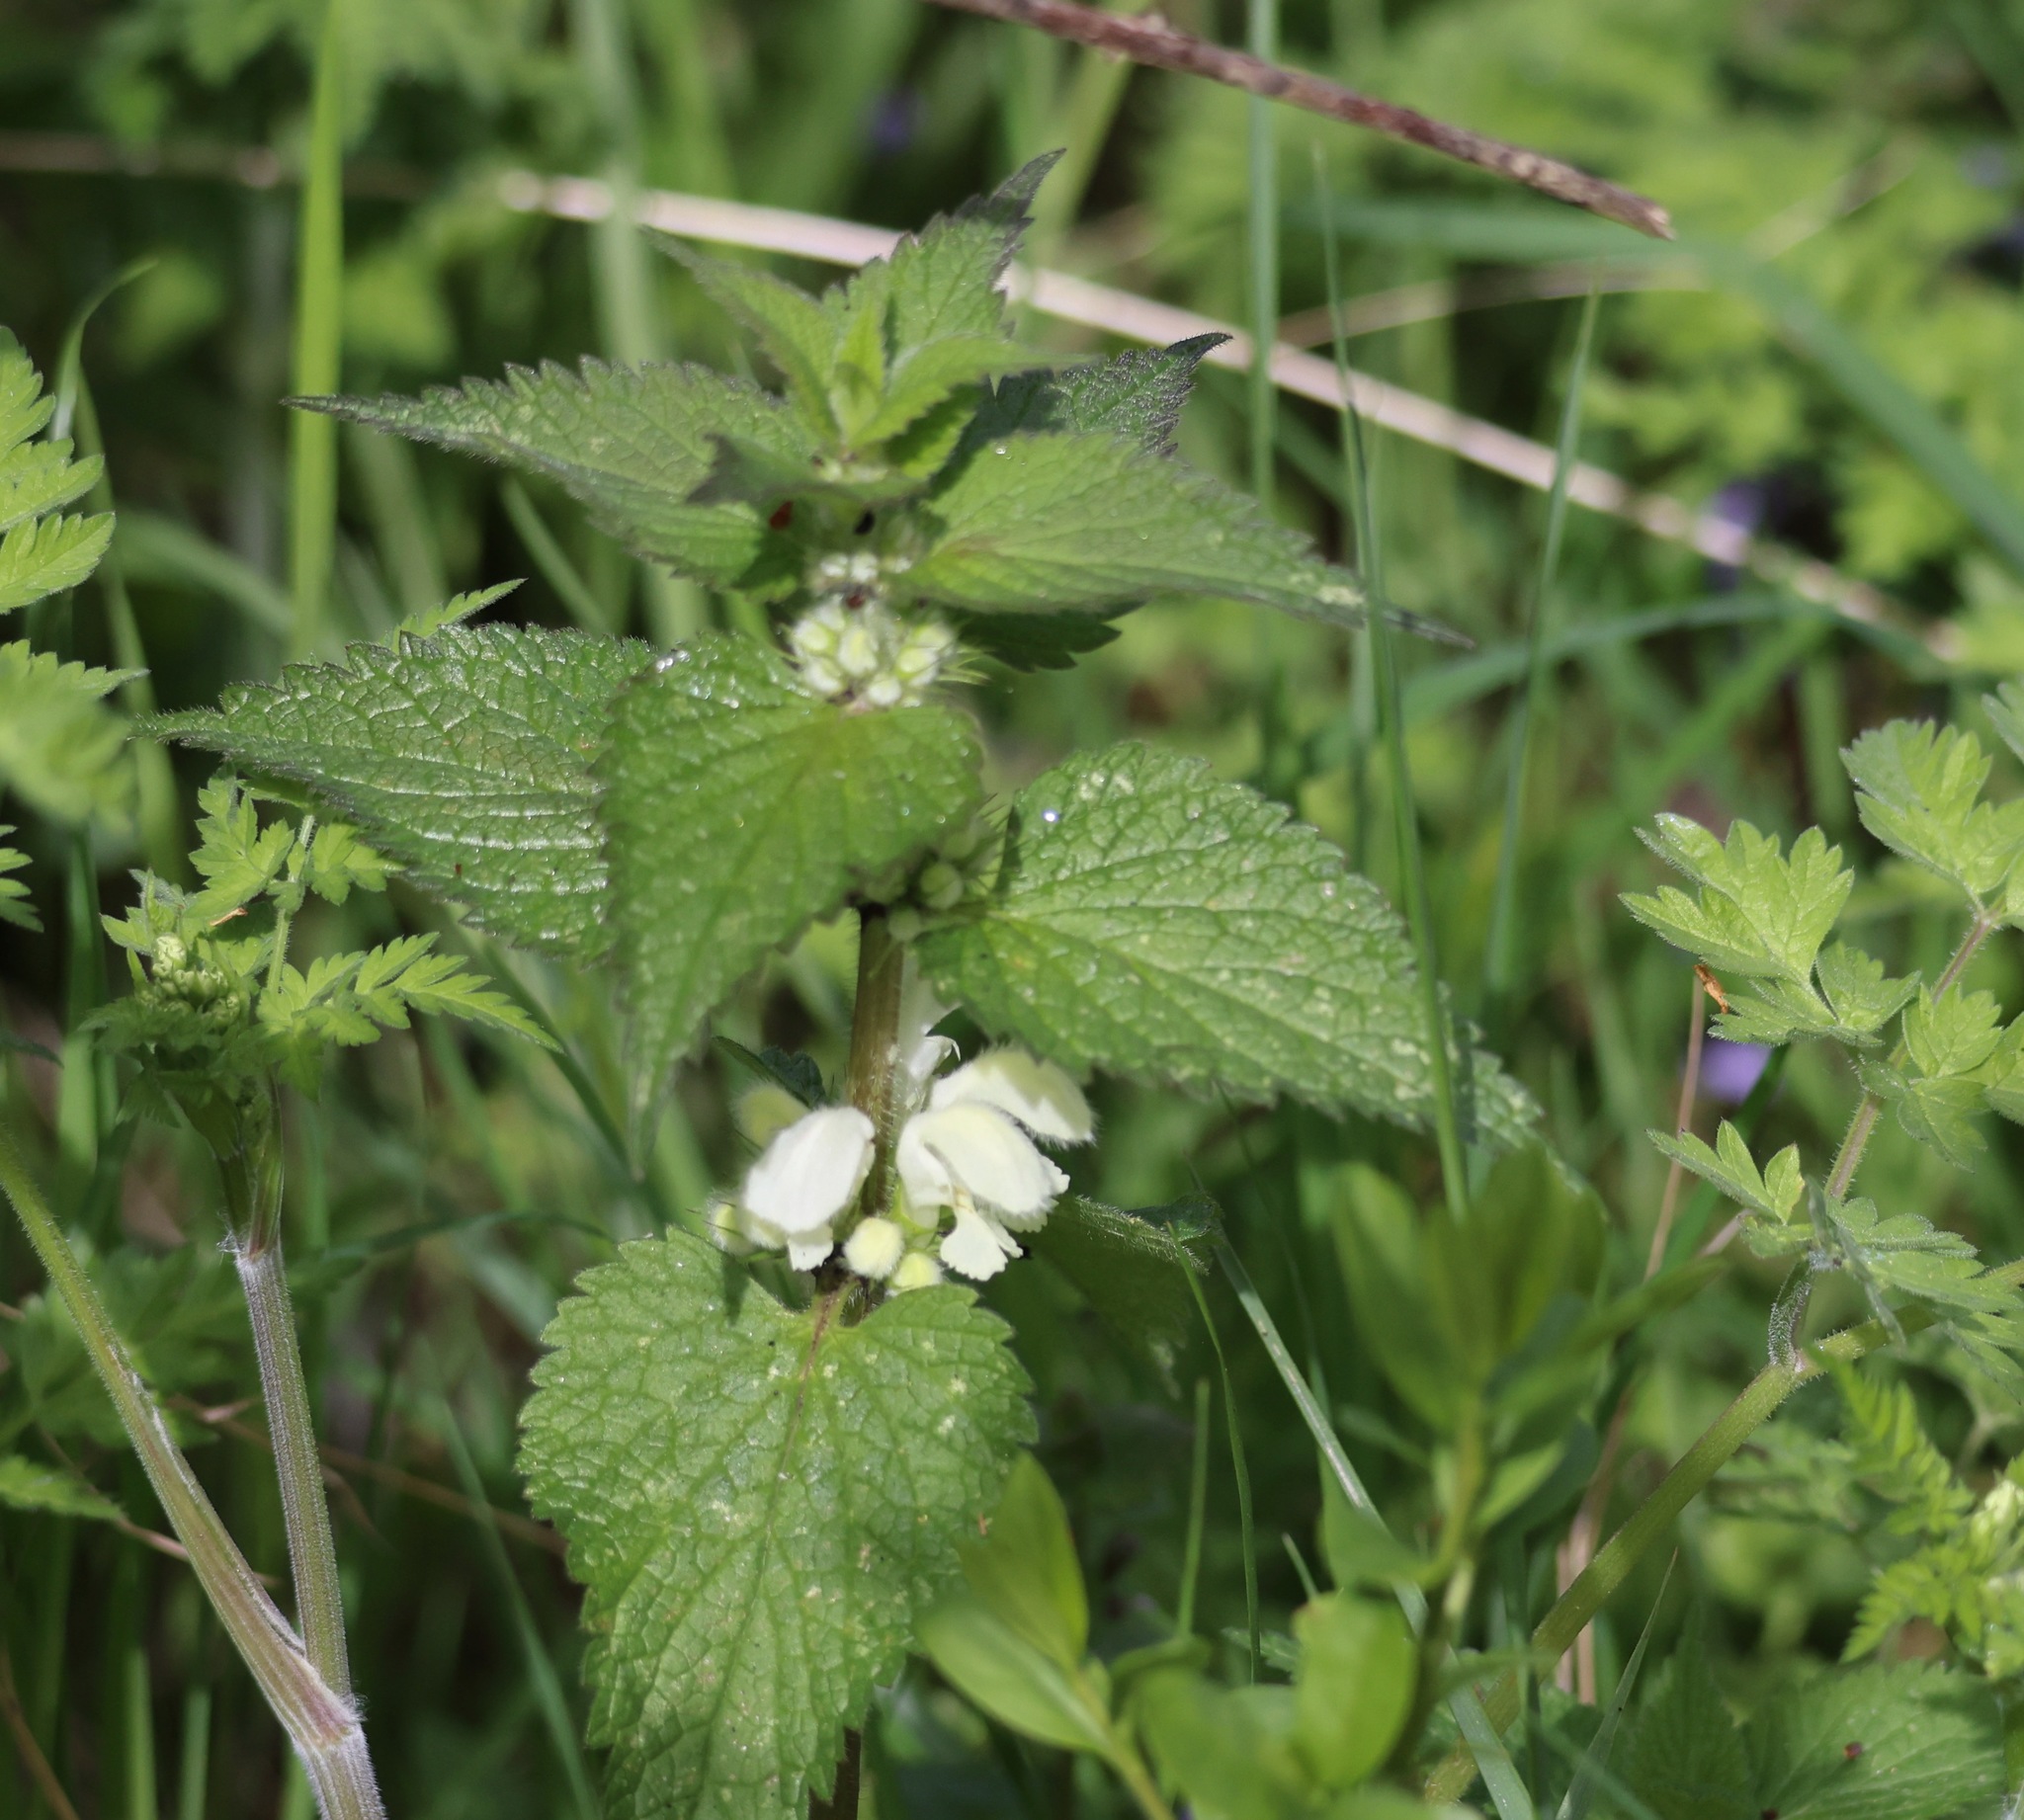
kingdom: Plantae
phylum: Tracheophyta
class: Magnoliopsida
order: Lamiales
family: Lamiaceae
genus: Lamium
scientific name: Lamium album
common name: White dead-nettle
